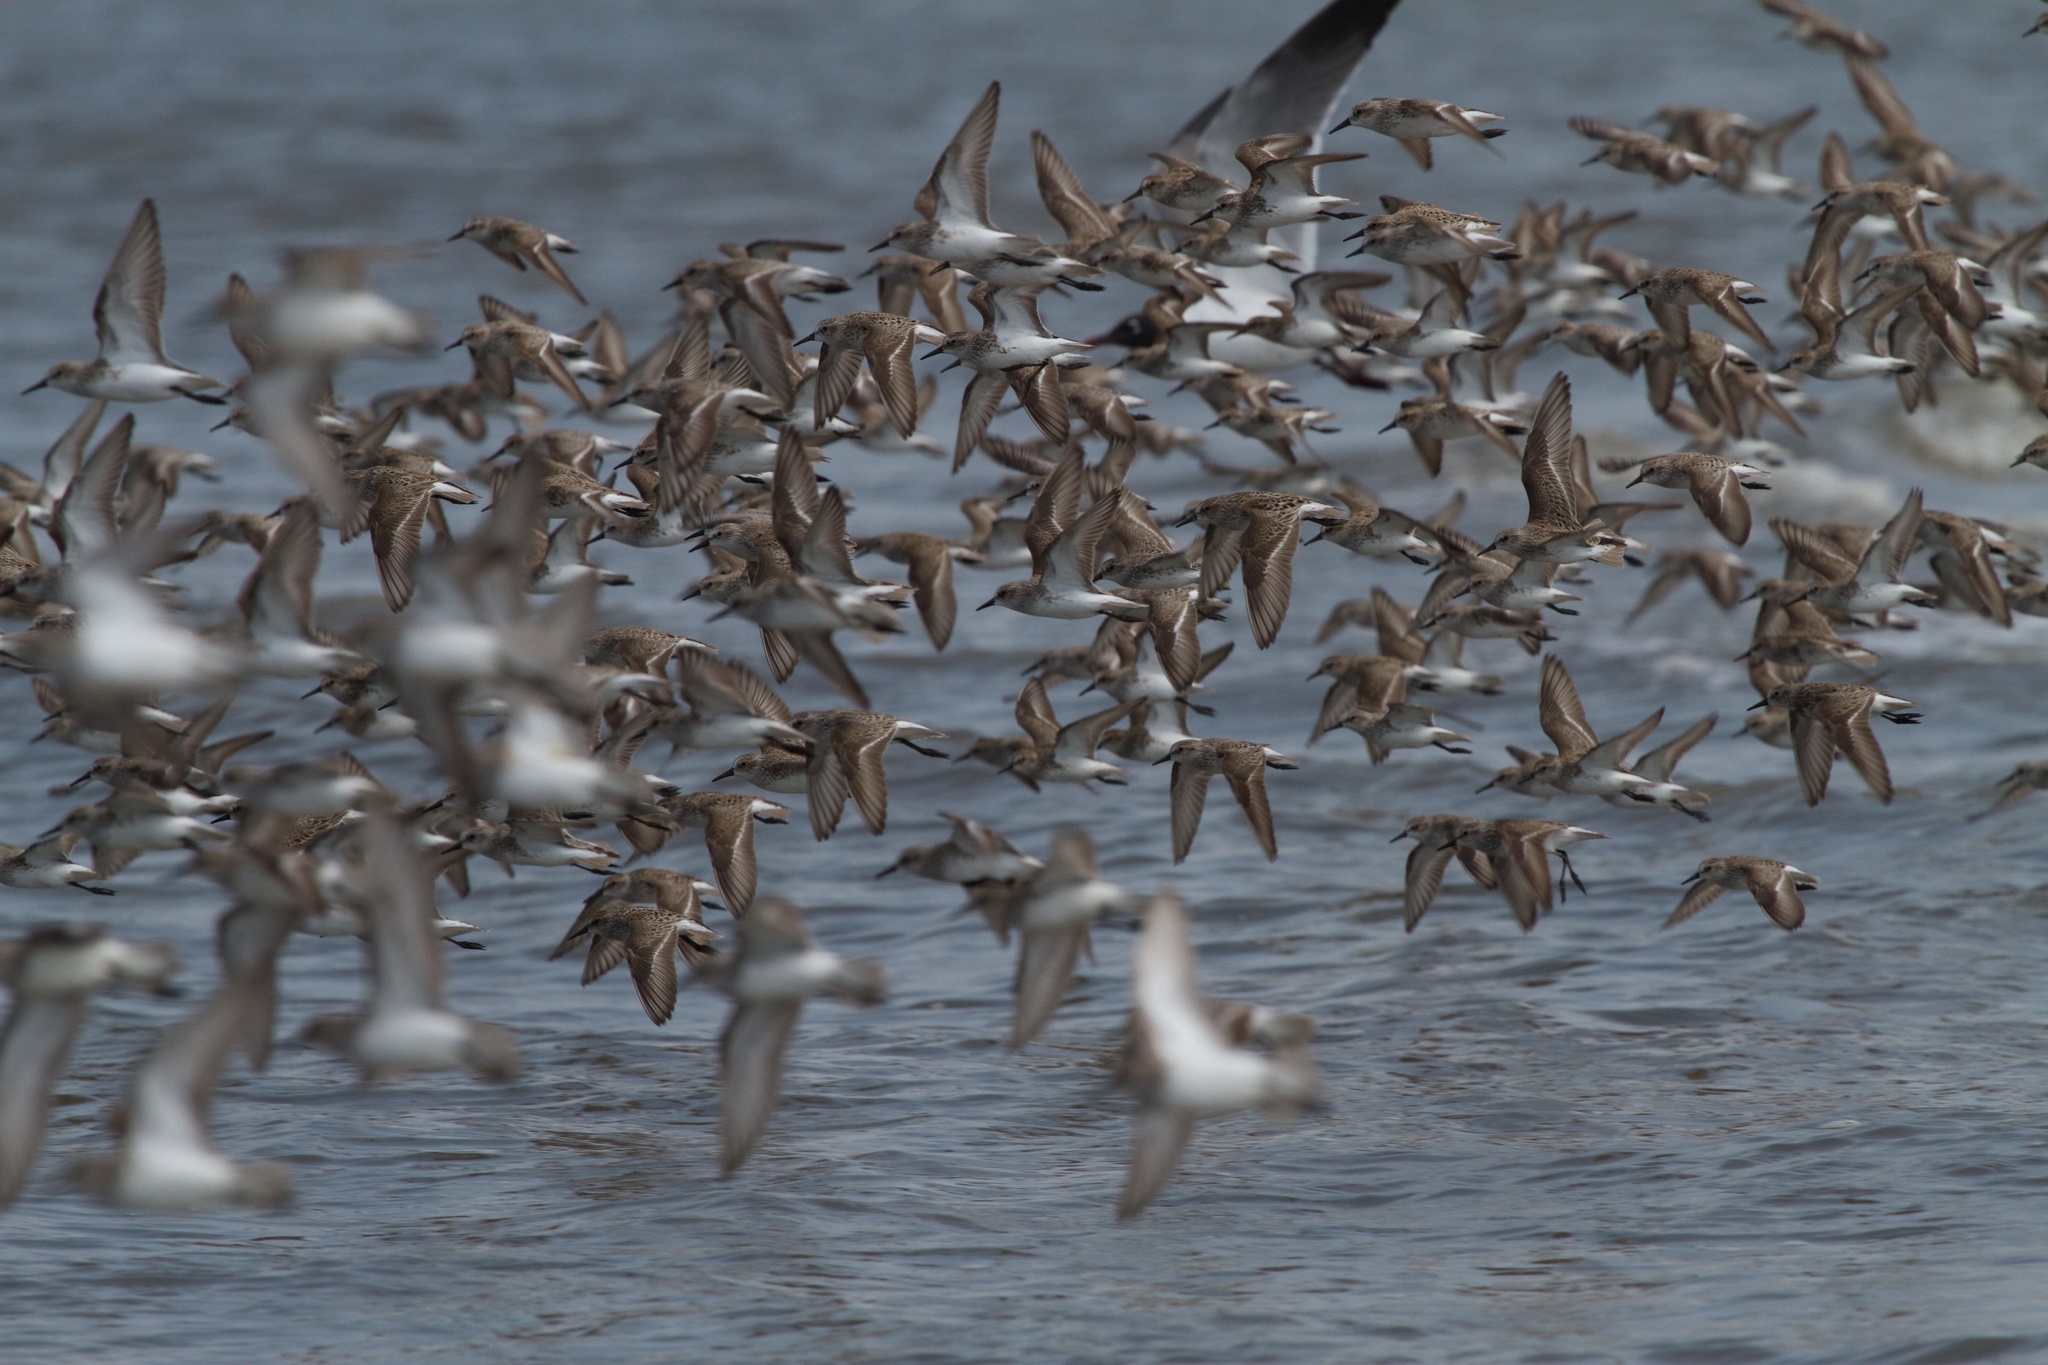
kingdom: Animalia
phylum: Chordata
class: Aves
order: Charadriiformes
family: Scolopacidae
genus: Calidris
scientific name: Calidris pusilla
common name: Semipalmated sandpiper
